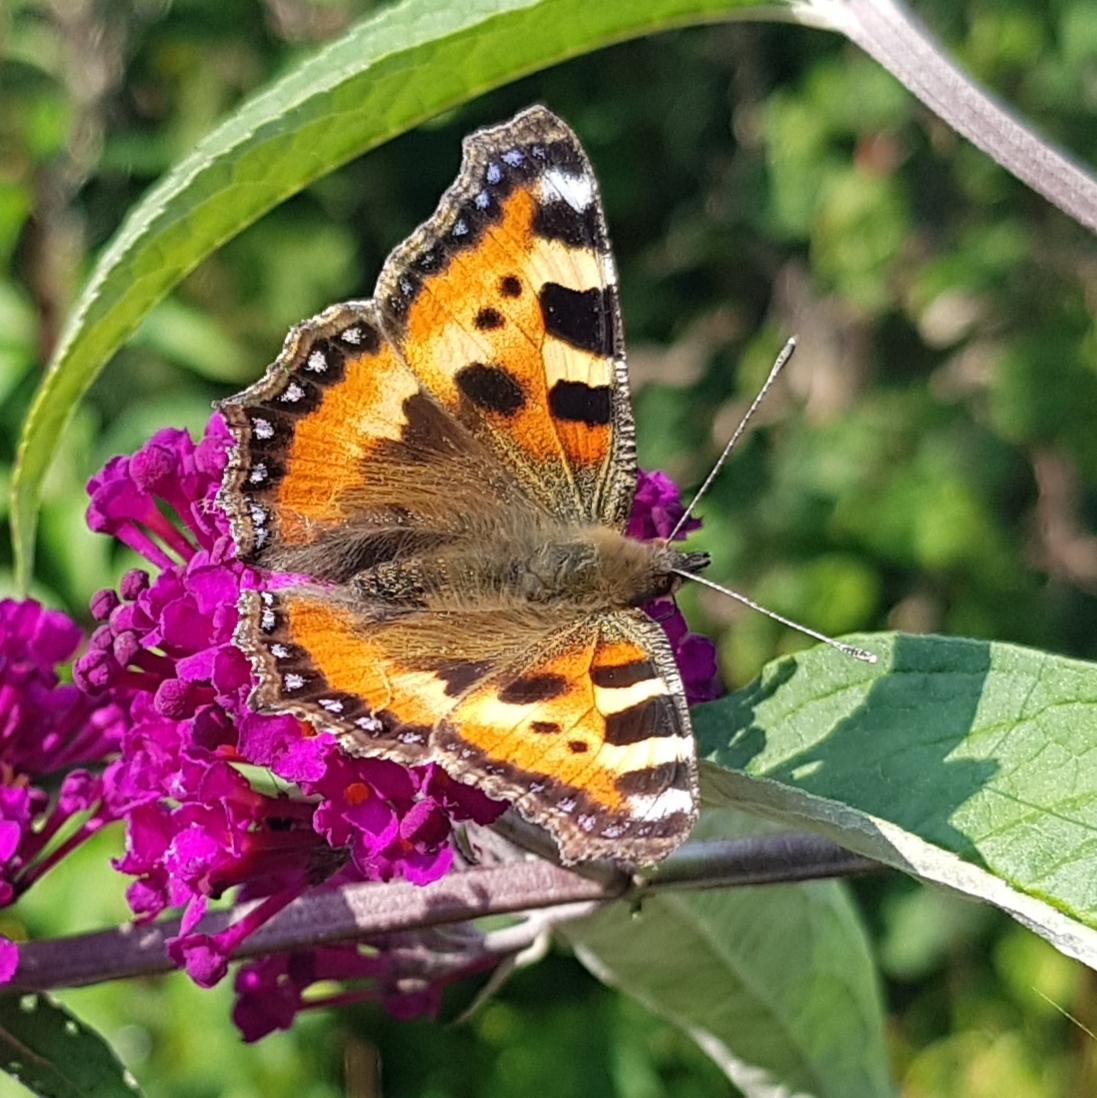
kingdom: Animalia
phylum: Arthropoda
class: Insecta
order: Lepidoptera
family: Nymphalidae
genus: Aglais
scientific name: Aglais urticae
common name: Small tortoiseshell
